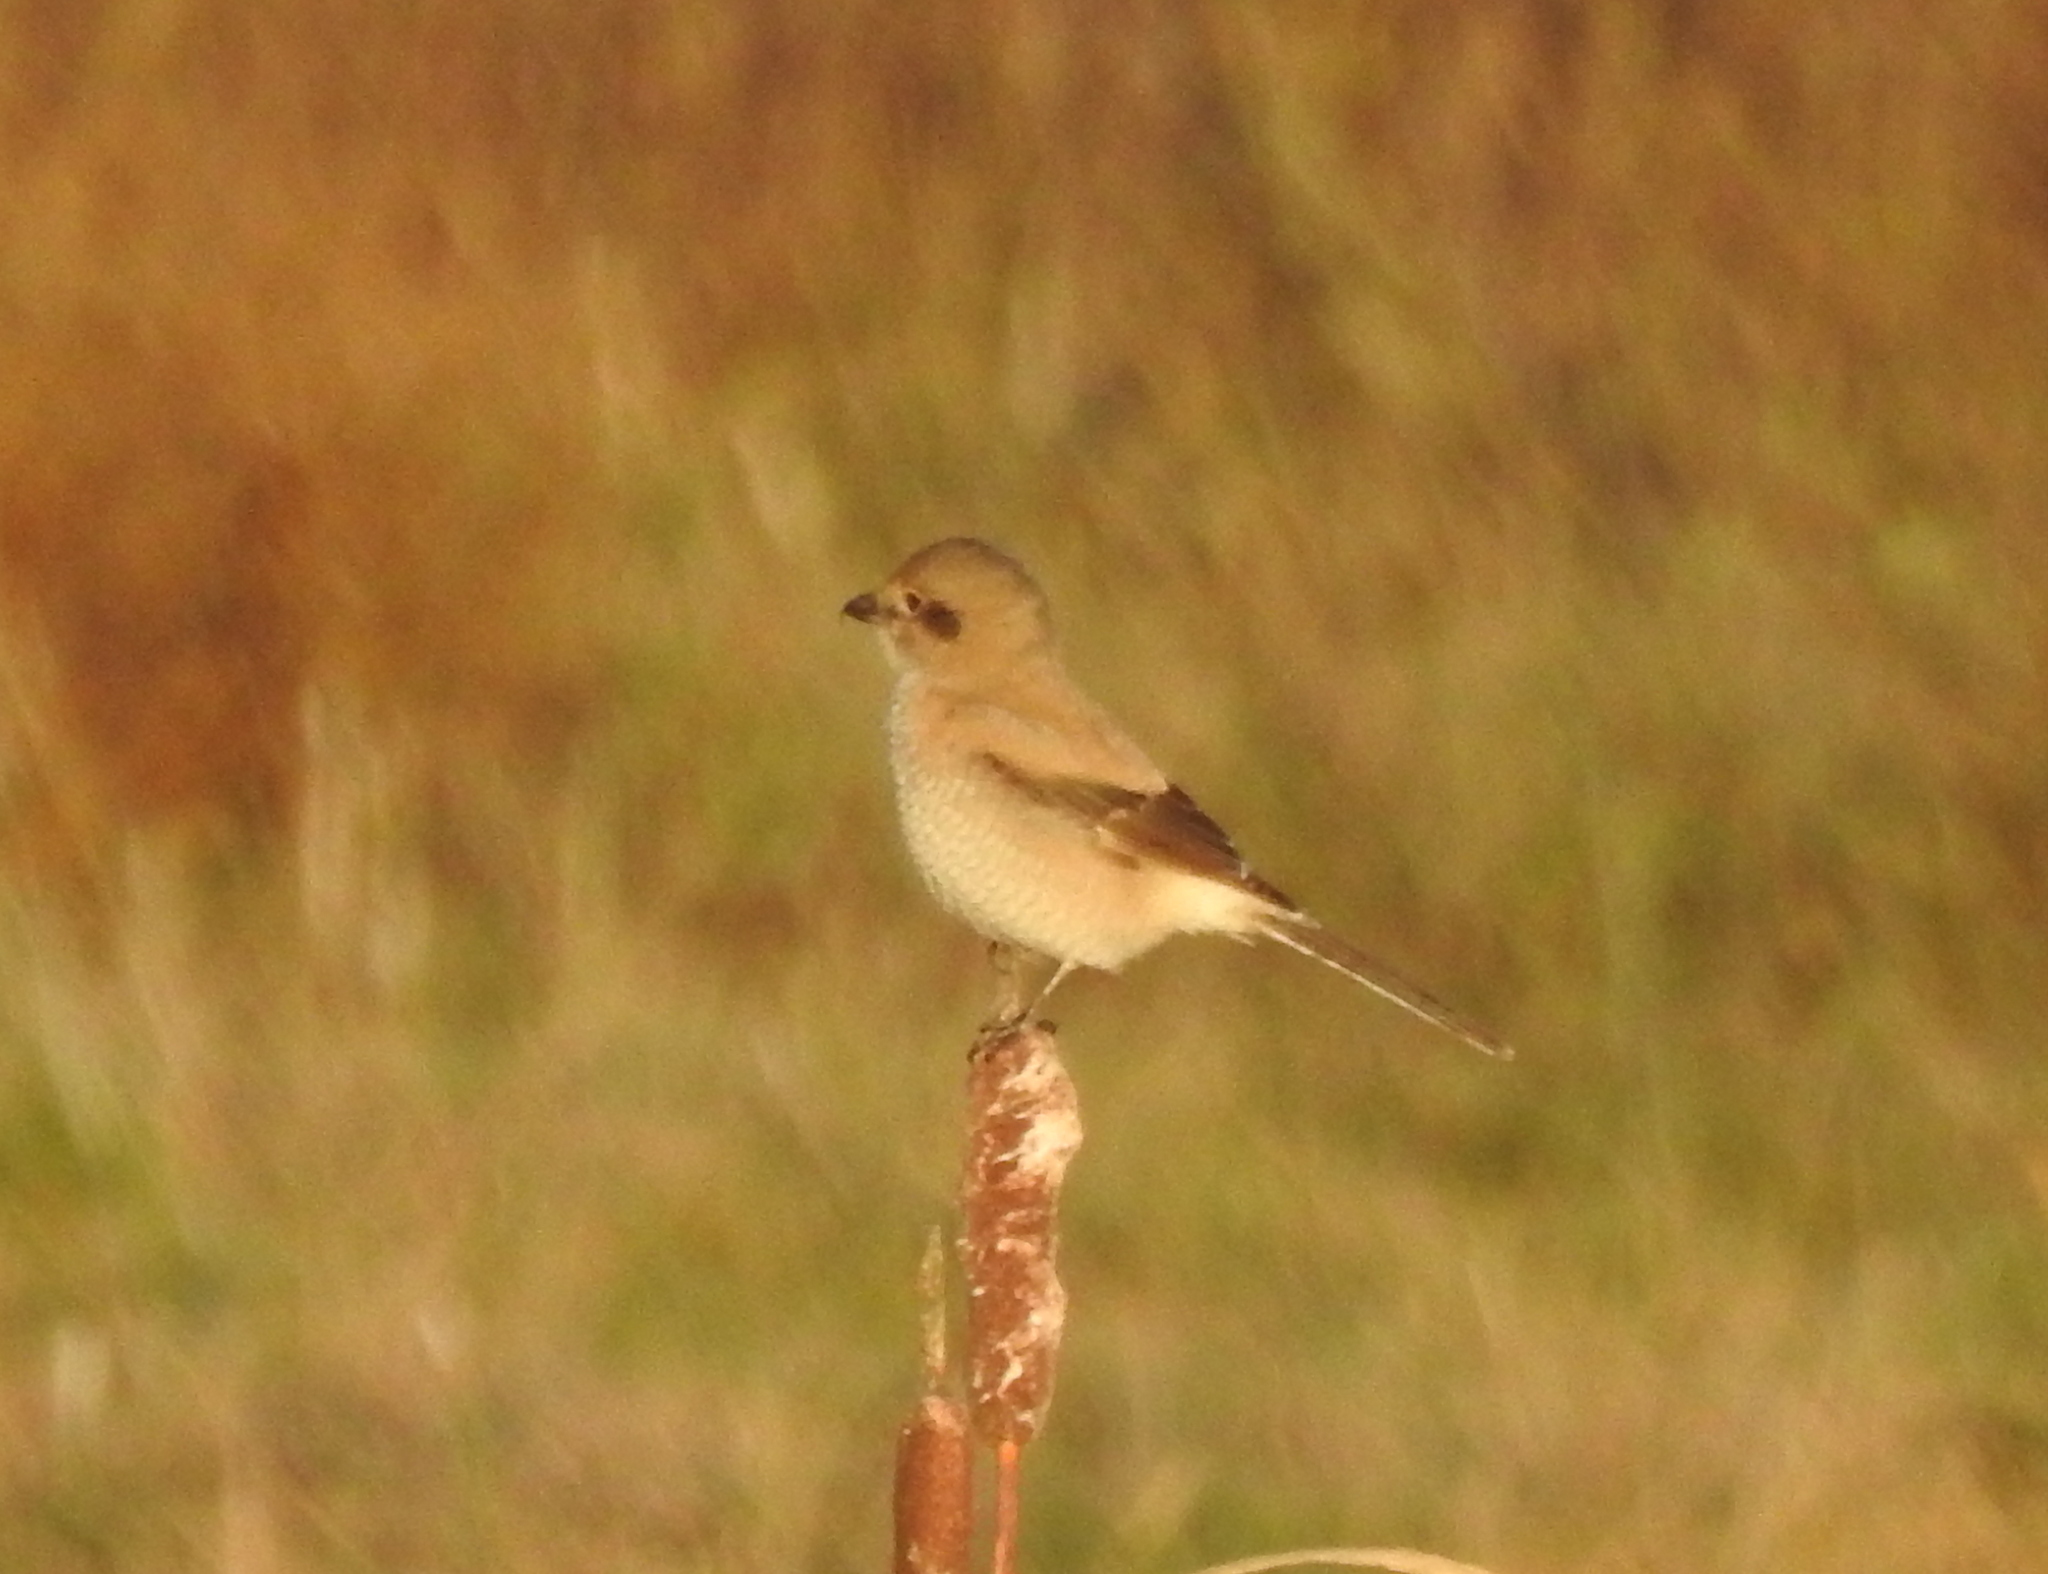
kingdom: Animalia
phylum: Chordata
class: Aves
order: Passeriformes
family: Laniidae
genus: Lanius
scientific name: Lanius borealis
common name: Northern shrike
